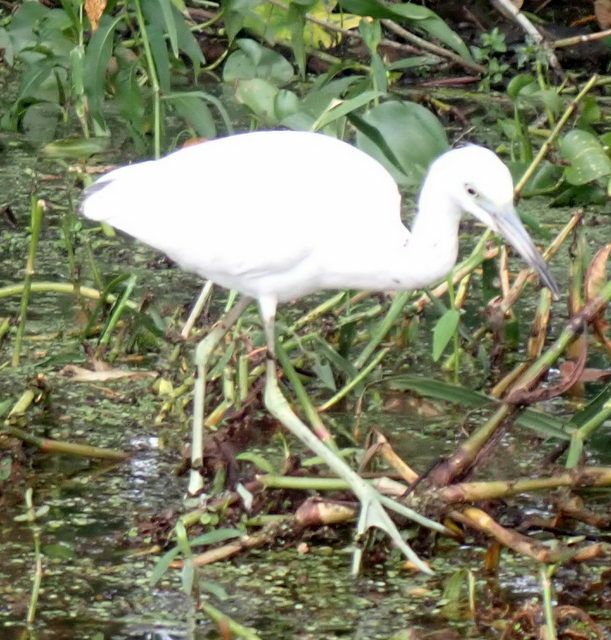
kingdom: Animalia
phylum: Chordata
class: Aves
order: Pelecaniformes
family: Ardeidae
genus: Egretta
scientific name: Egretta caerulea
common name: Little blue heron
